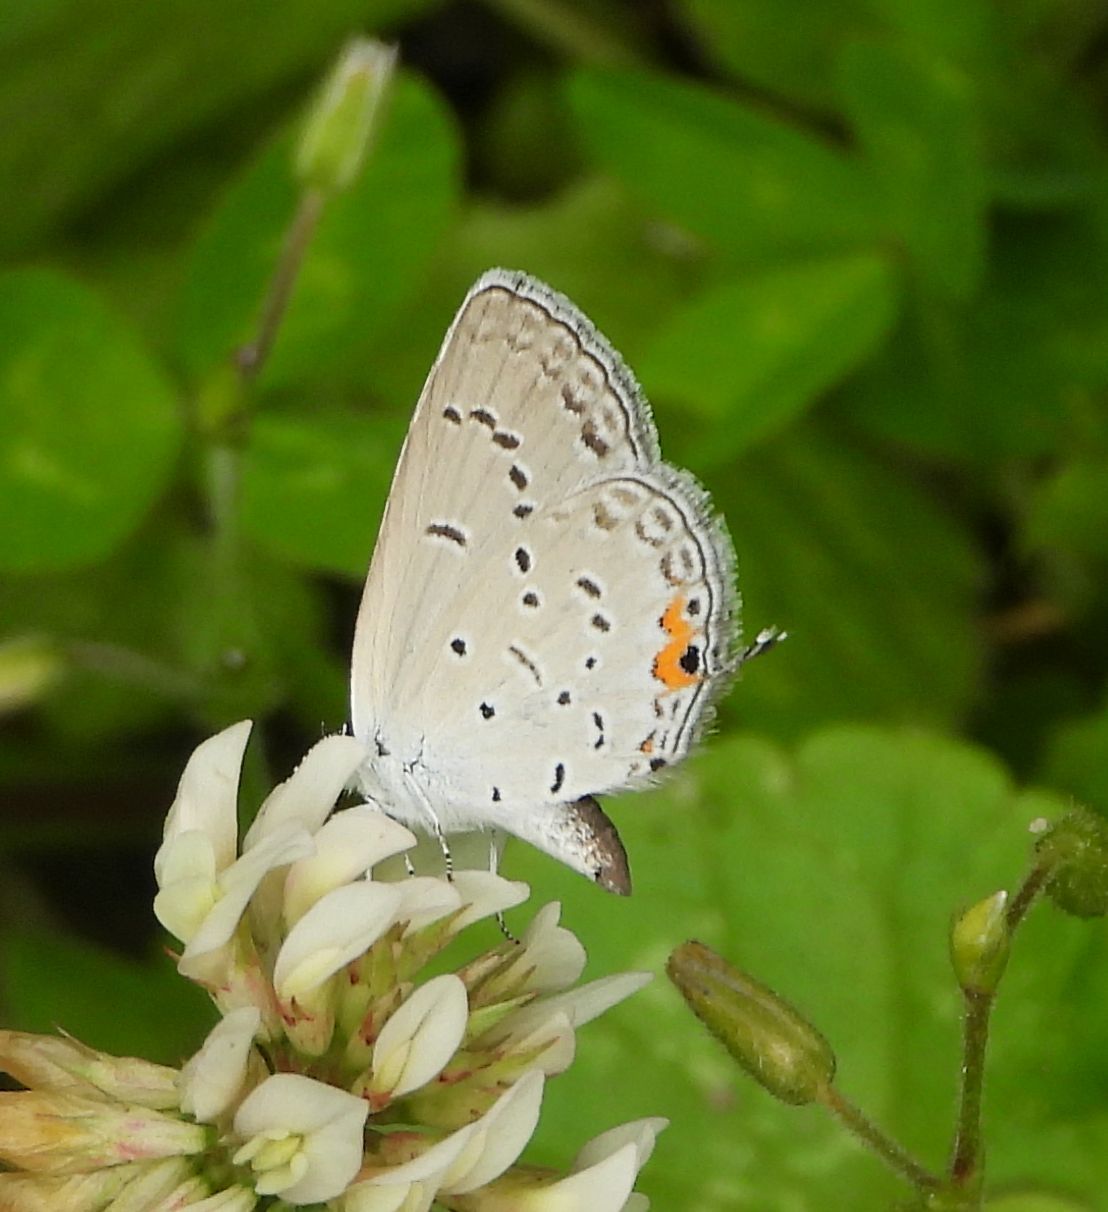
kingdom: Animalia
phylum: Arthropoda
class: Insecta
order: Lepidoptera
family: Lycaenidae
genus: Elkalyce
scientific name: Elkalyce comyntas
